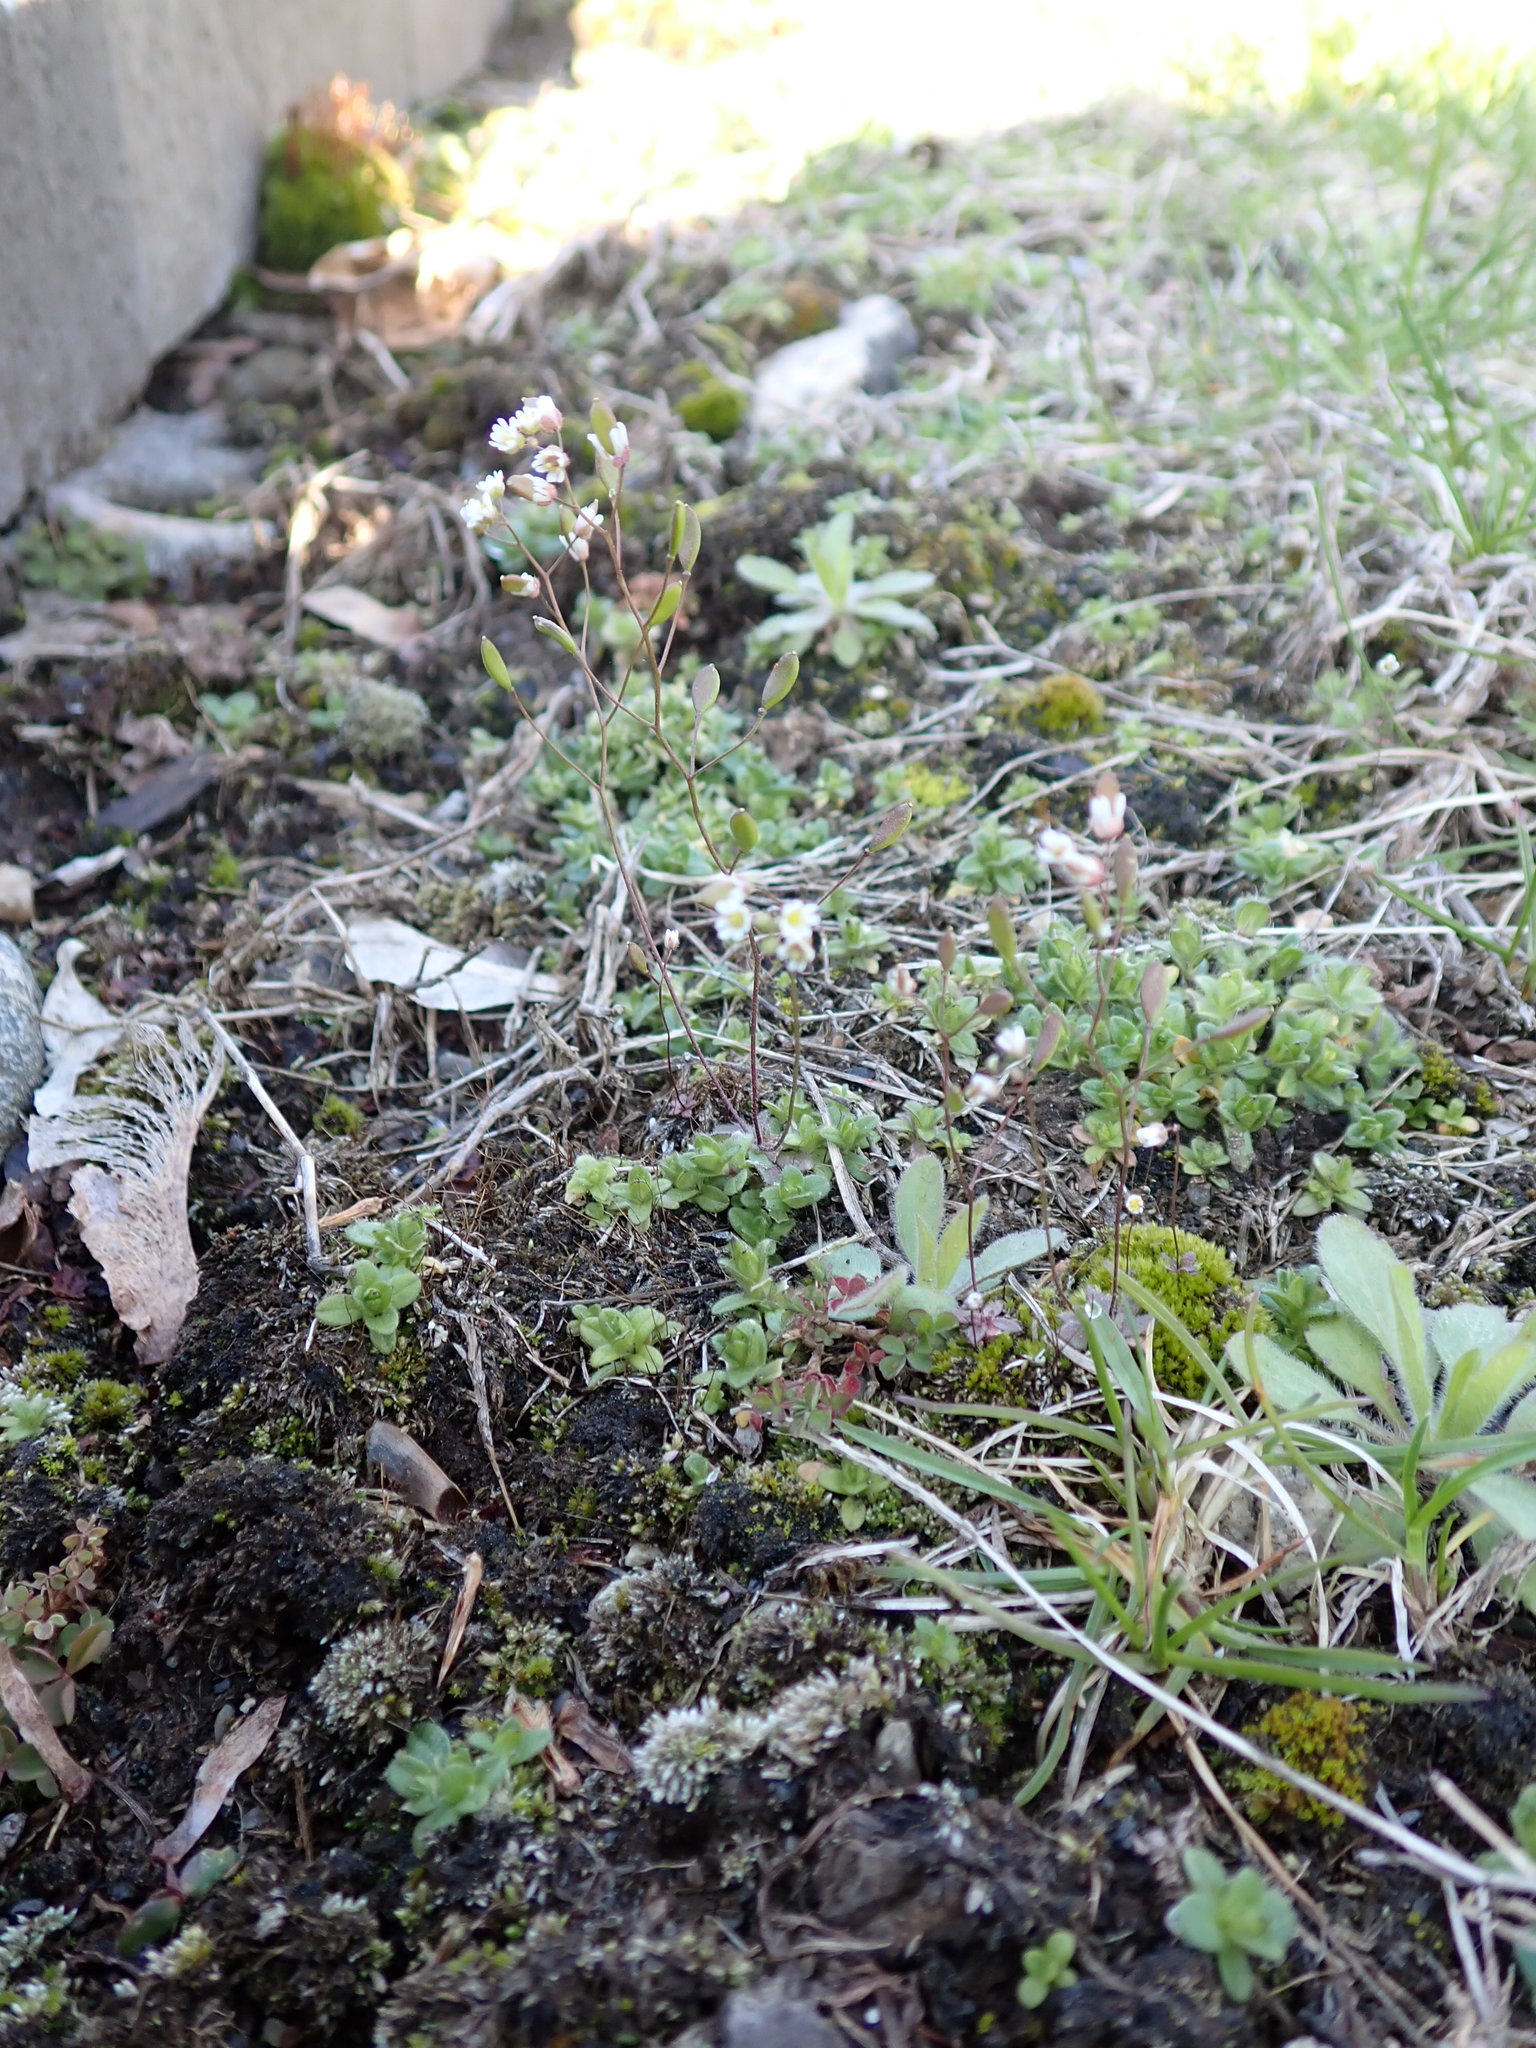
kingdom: Plantae
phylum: Tracheophyta
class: Magnoliopsida
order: Brassicales
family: Brassicaceae
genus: Draba
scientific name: Draba verna
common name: Spring draba
